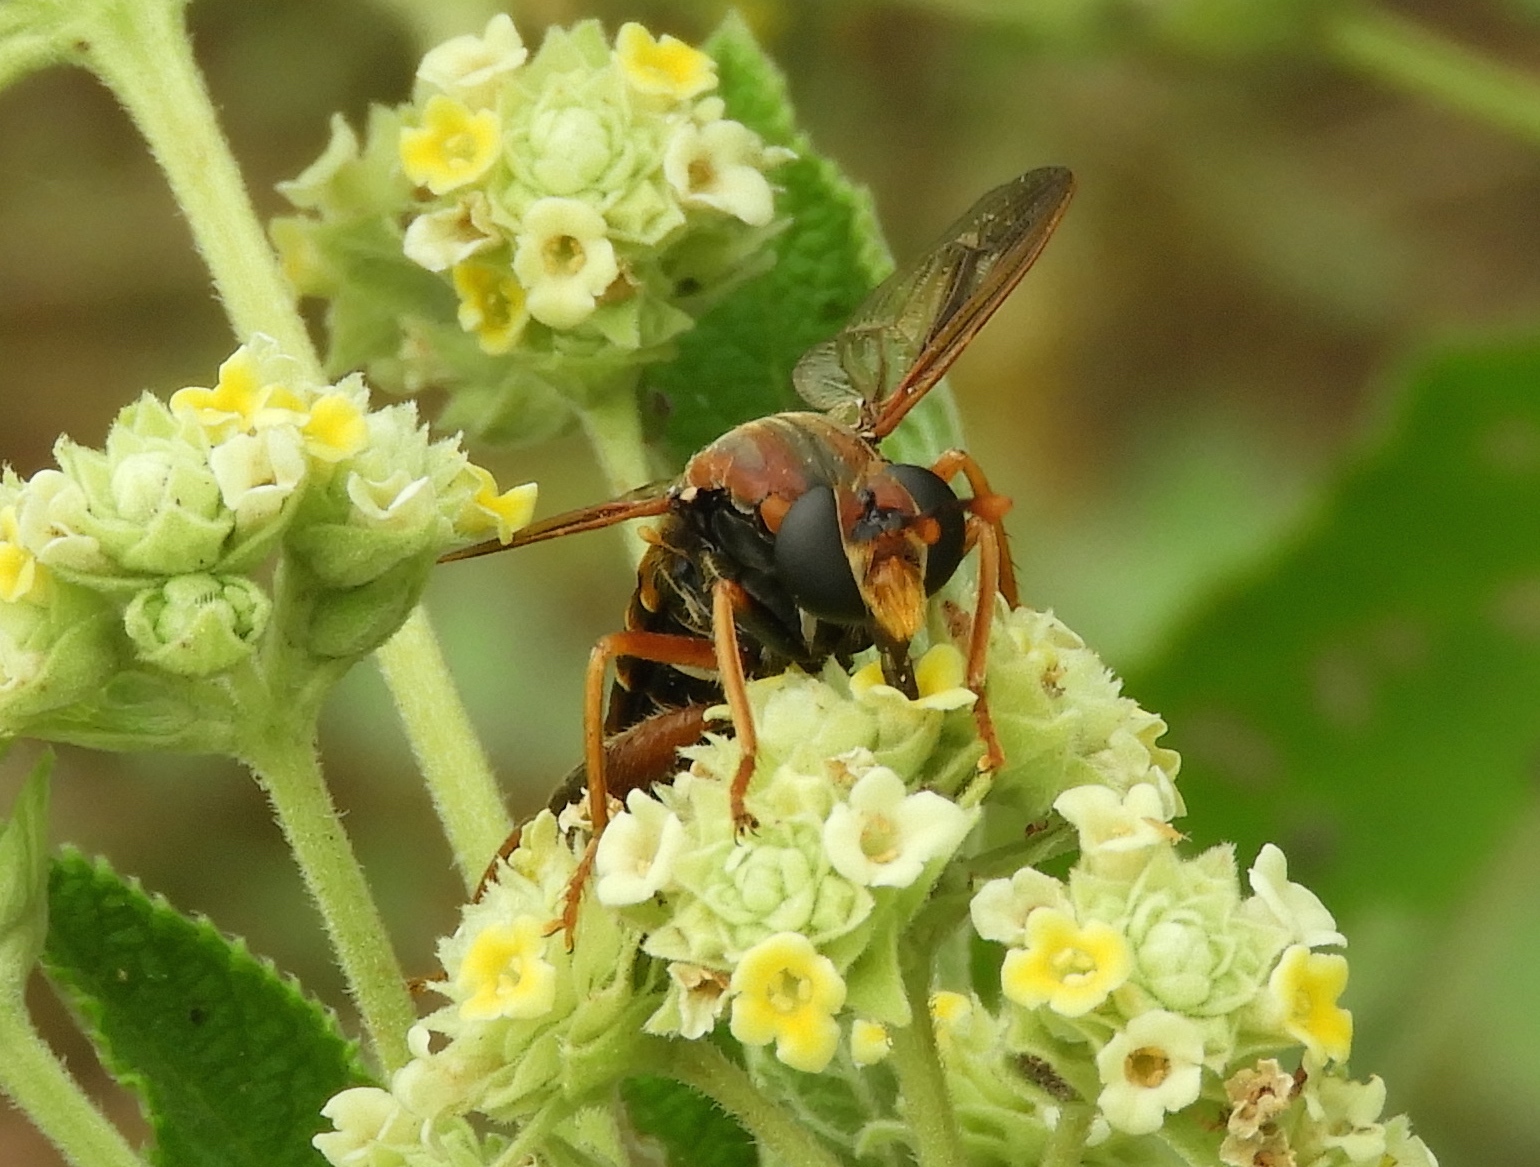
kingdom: Animalia
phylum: Arthropoda
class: Insecta
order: Diptera
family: Mydidae
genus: Mydas
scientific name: Mydas
